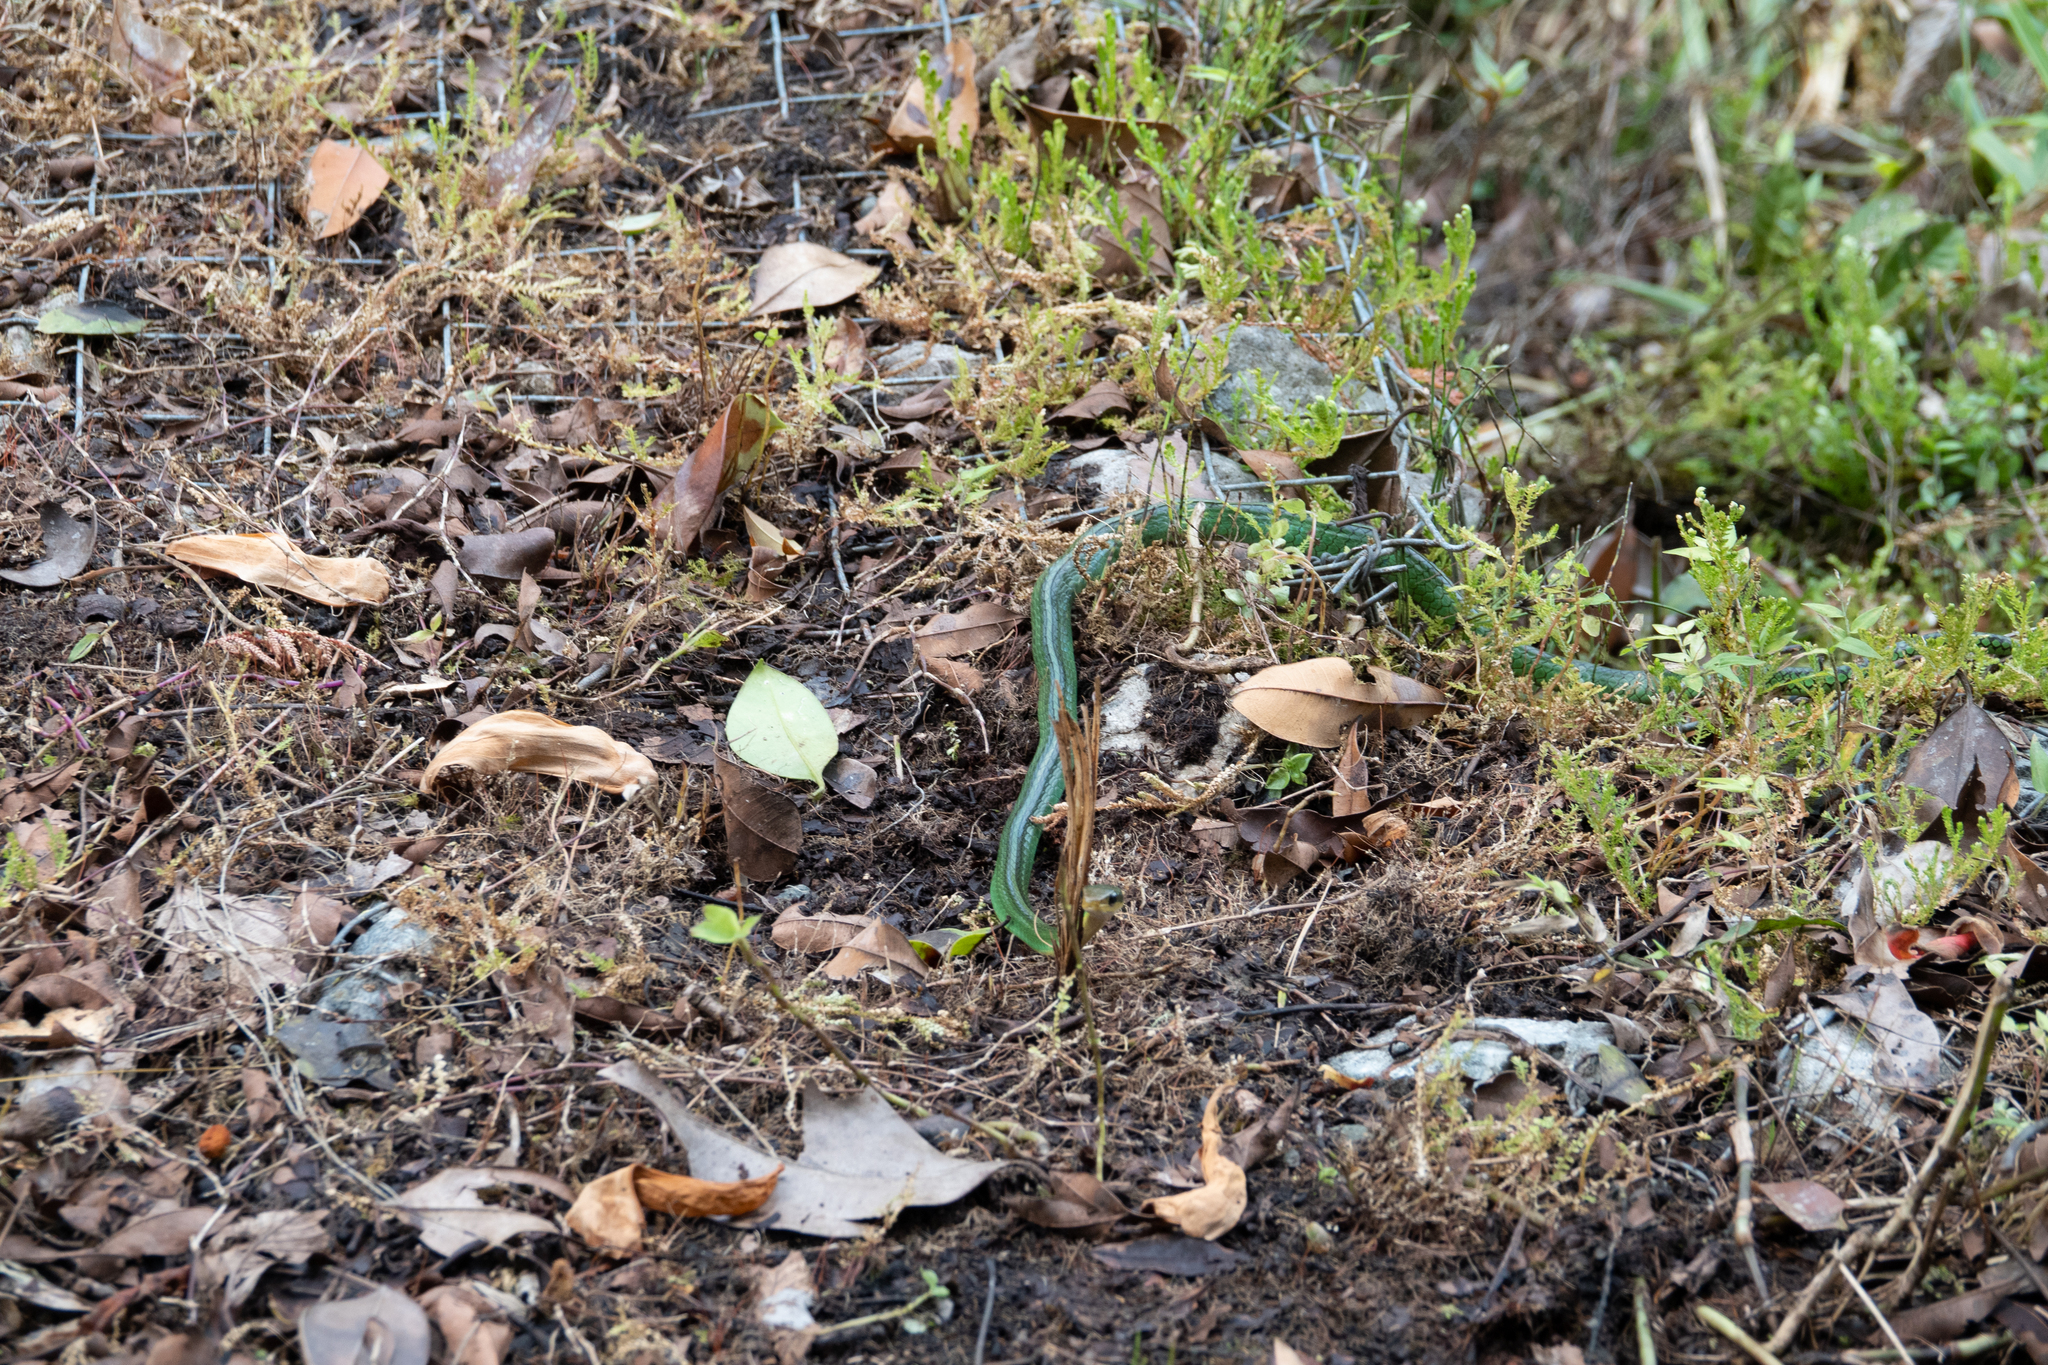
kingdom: Animalia
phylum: Chordata
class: Squamata
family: Colubridae
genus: Chironius
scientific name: Chironius monticola
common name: Mountain sipo
